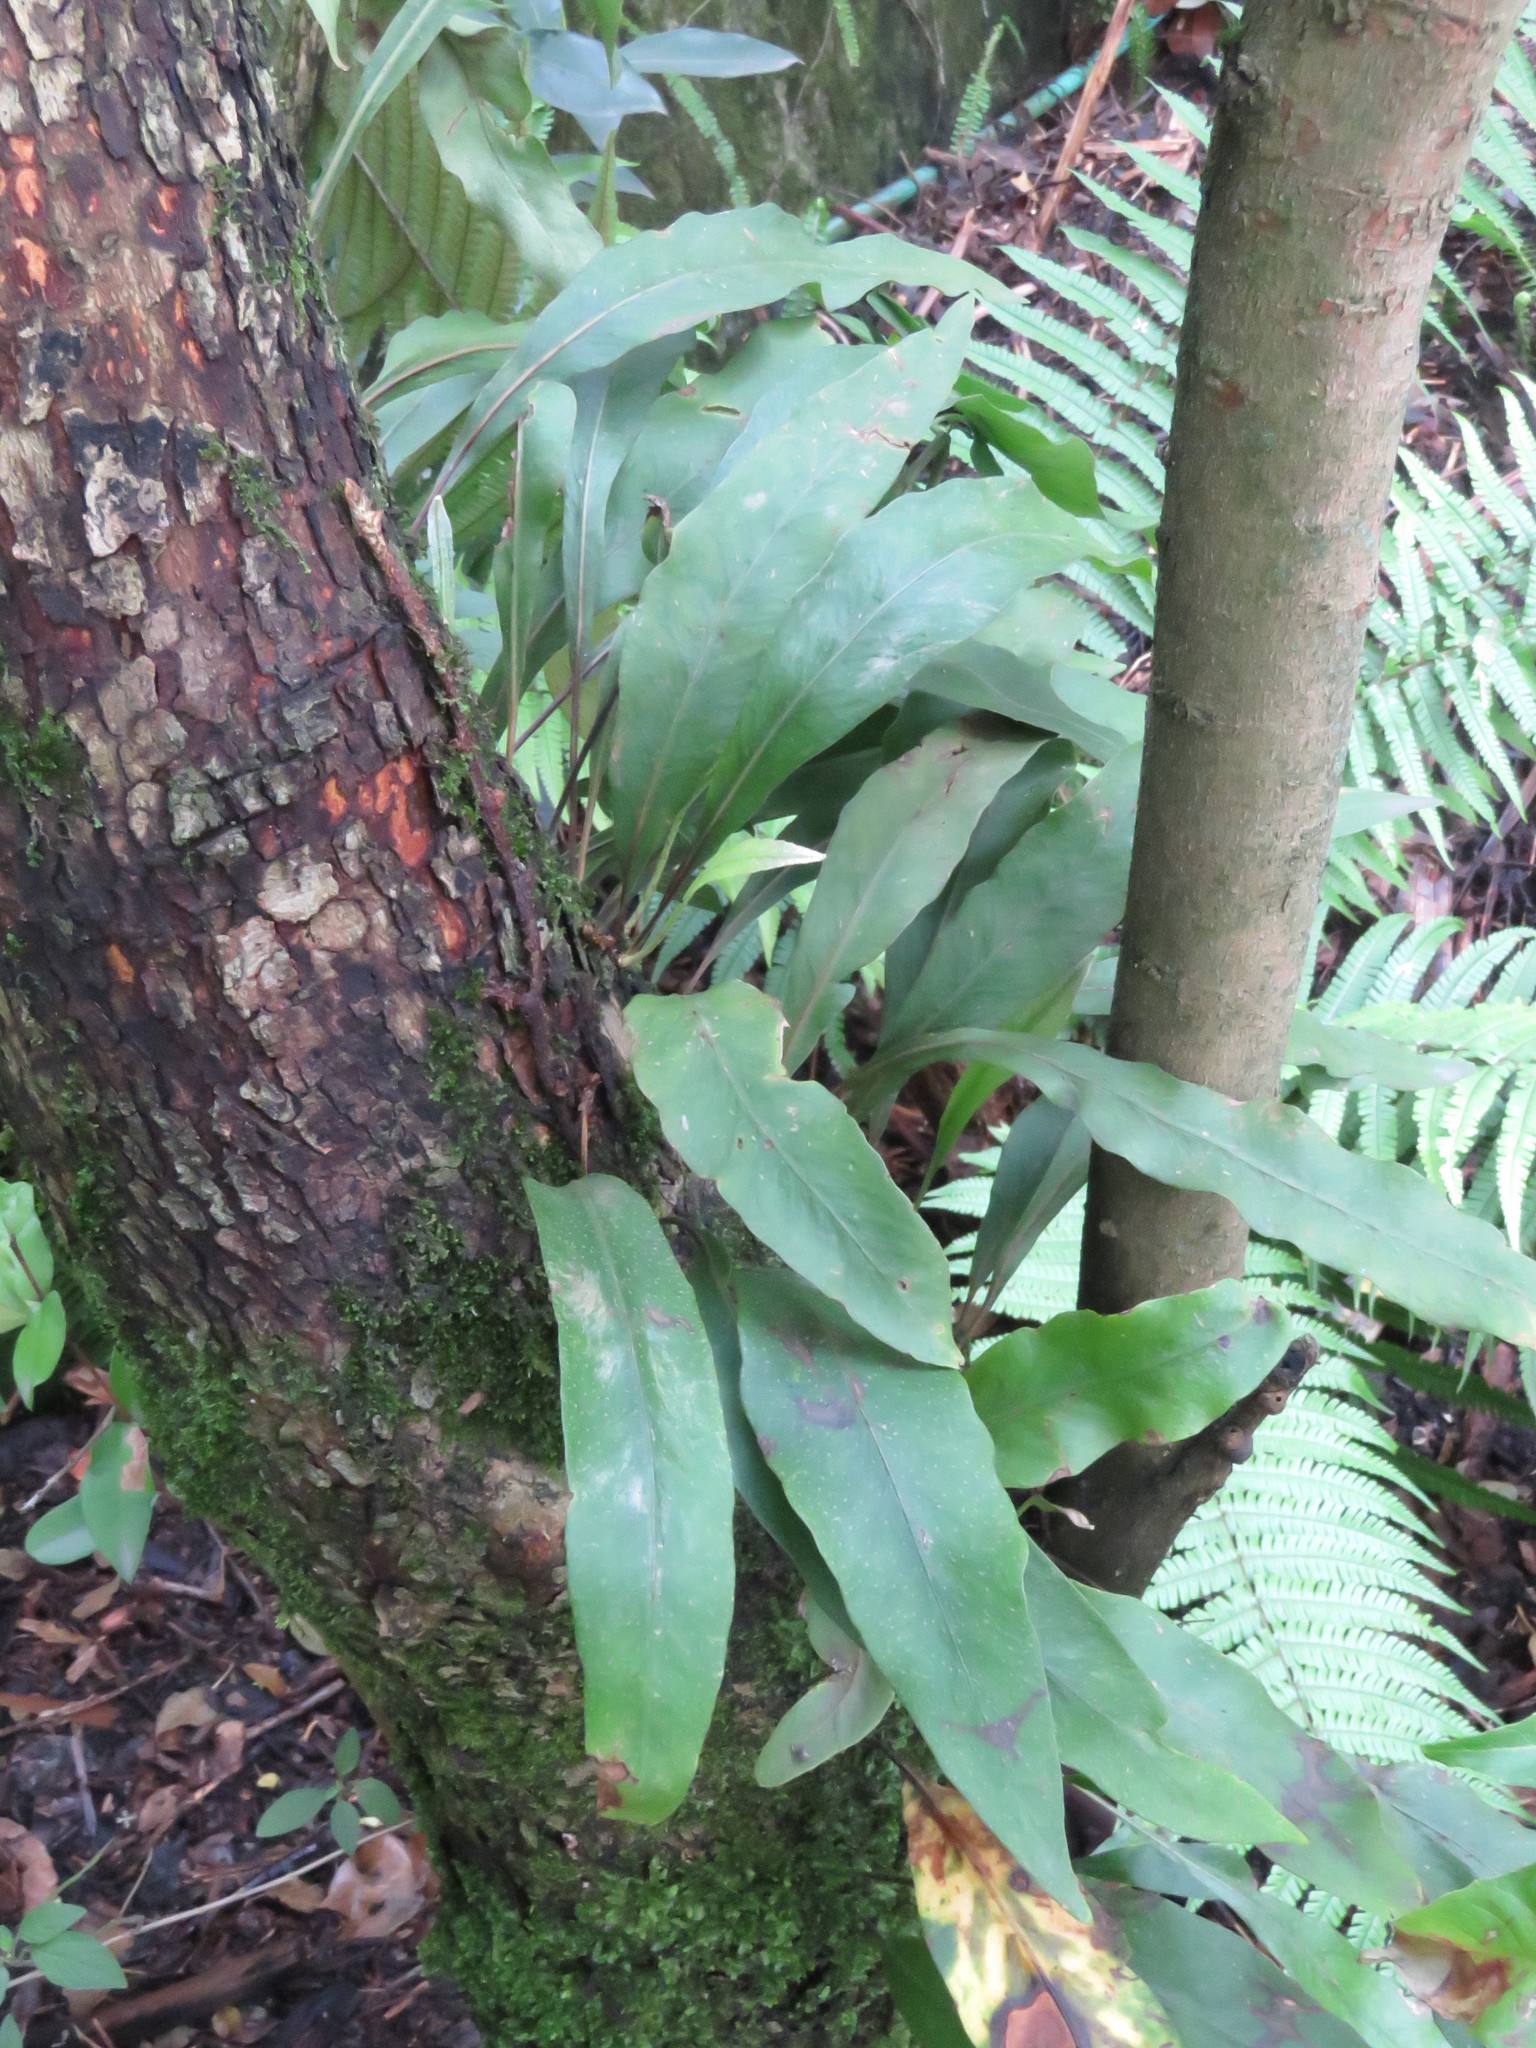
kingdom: Plantae
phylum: Tracheophyta
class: Polypodiopsida
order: Polypodiales
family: Polypodiaceae
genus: Pleopeltis
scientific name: Pleopeltis macrocarpa
